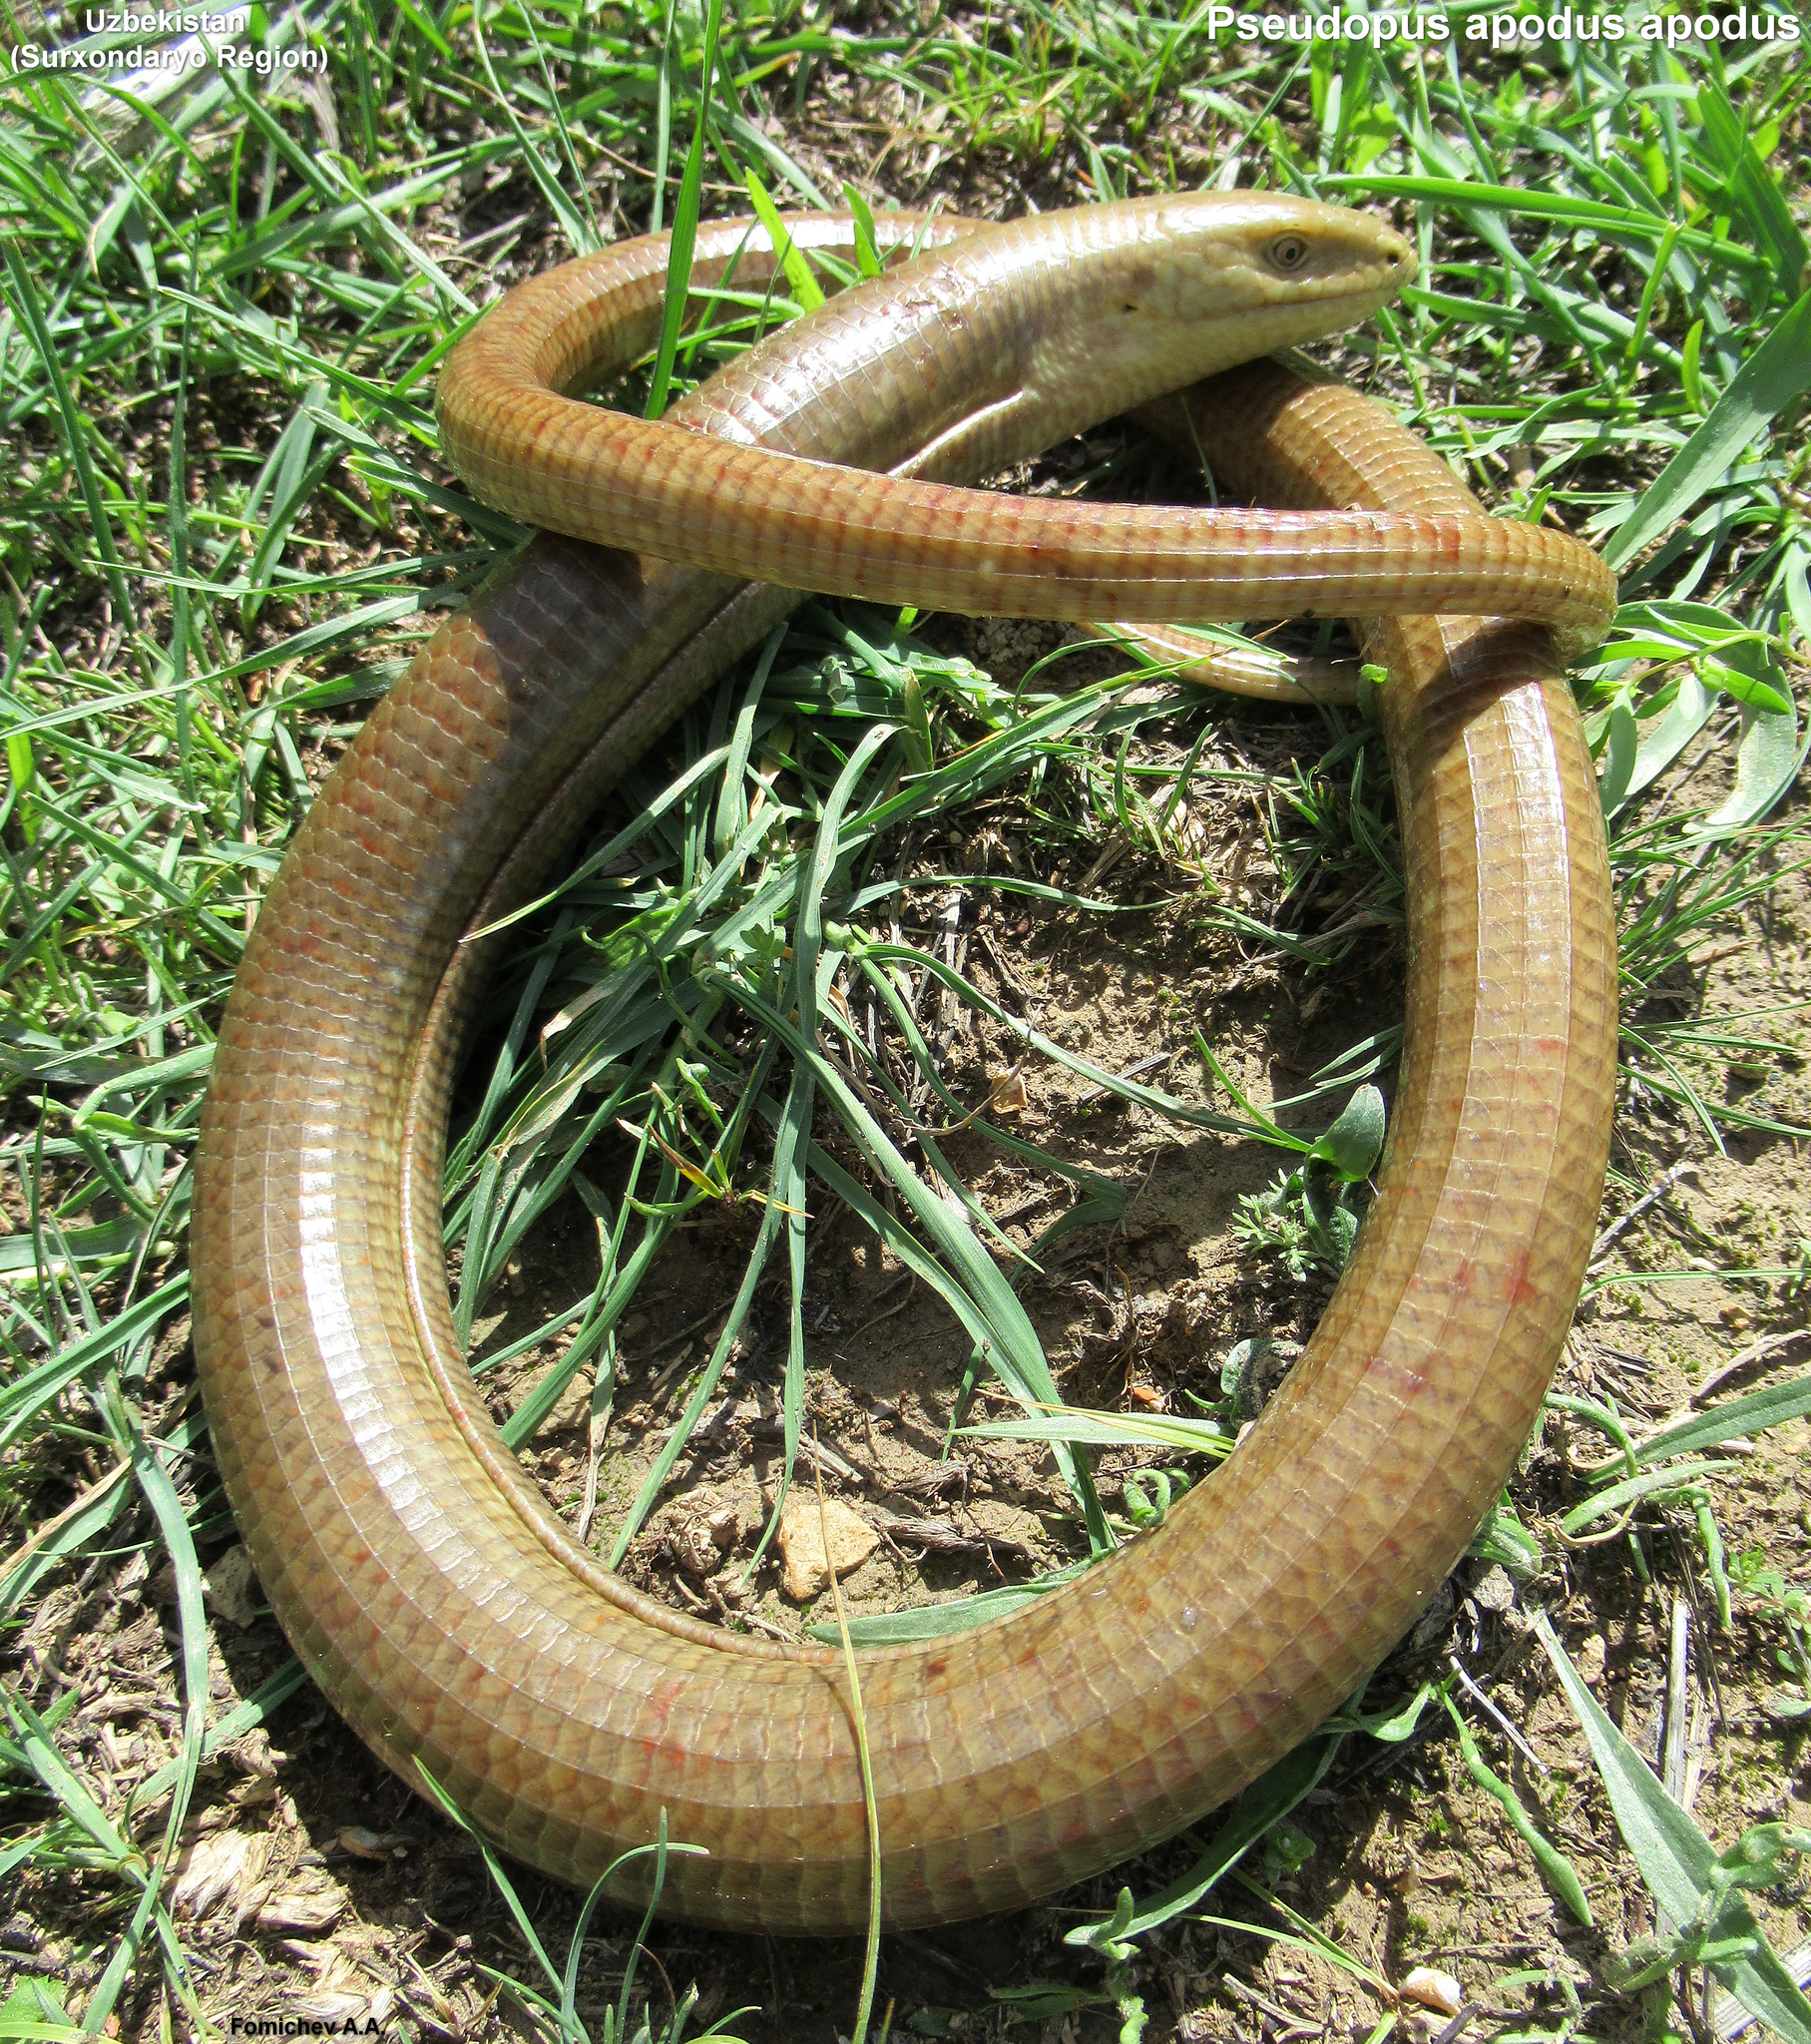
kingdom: Animalia
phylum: Chordata
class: Squamata
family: Anguidae
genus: Pseudopus
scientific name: Pseudopus apodus
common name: European glass lizard
